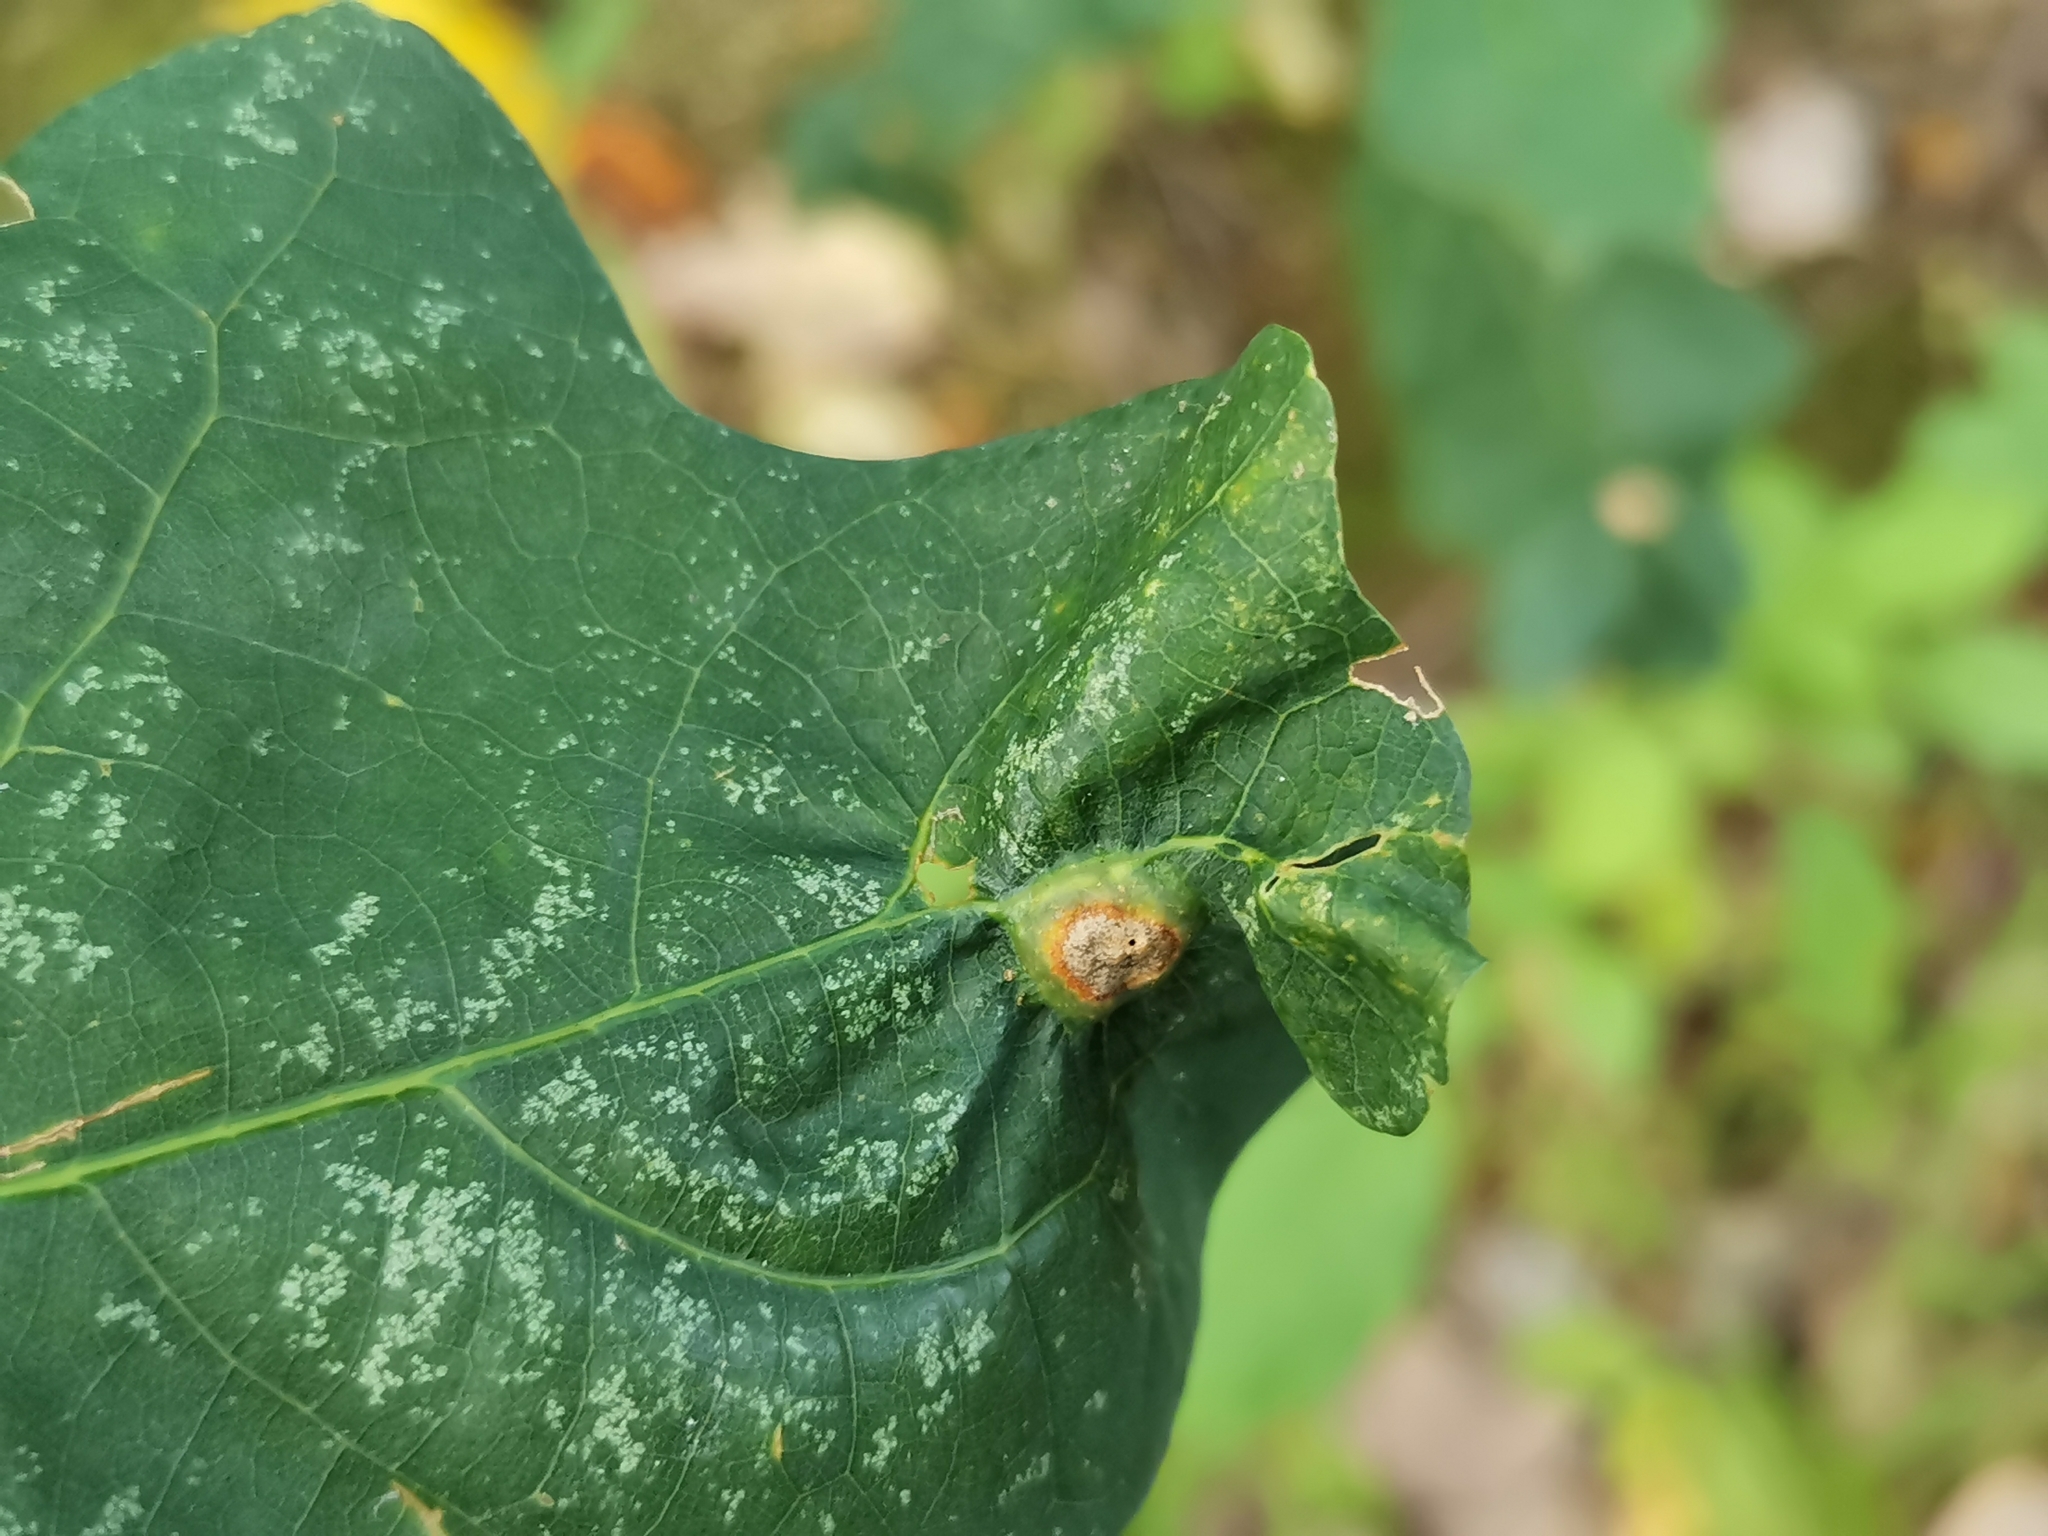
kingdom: Animalia
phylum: Arthropoda
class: Insecta
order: Hymenoptera
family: Cynipidae
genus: Callirhytis
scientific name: Callirhytis
